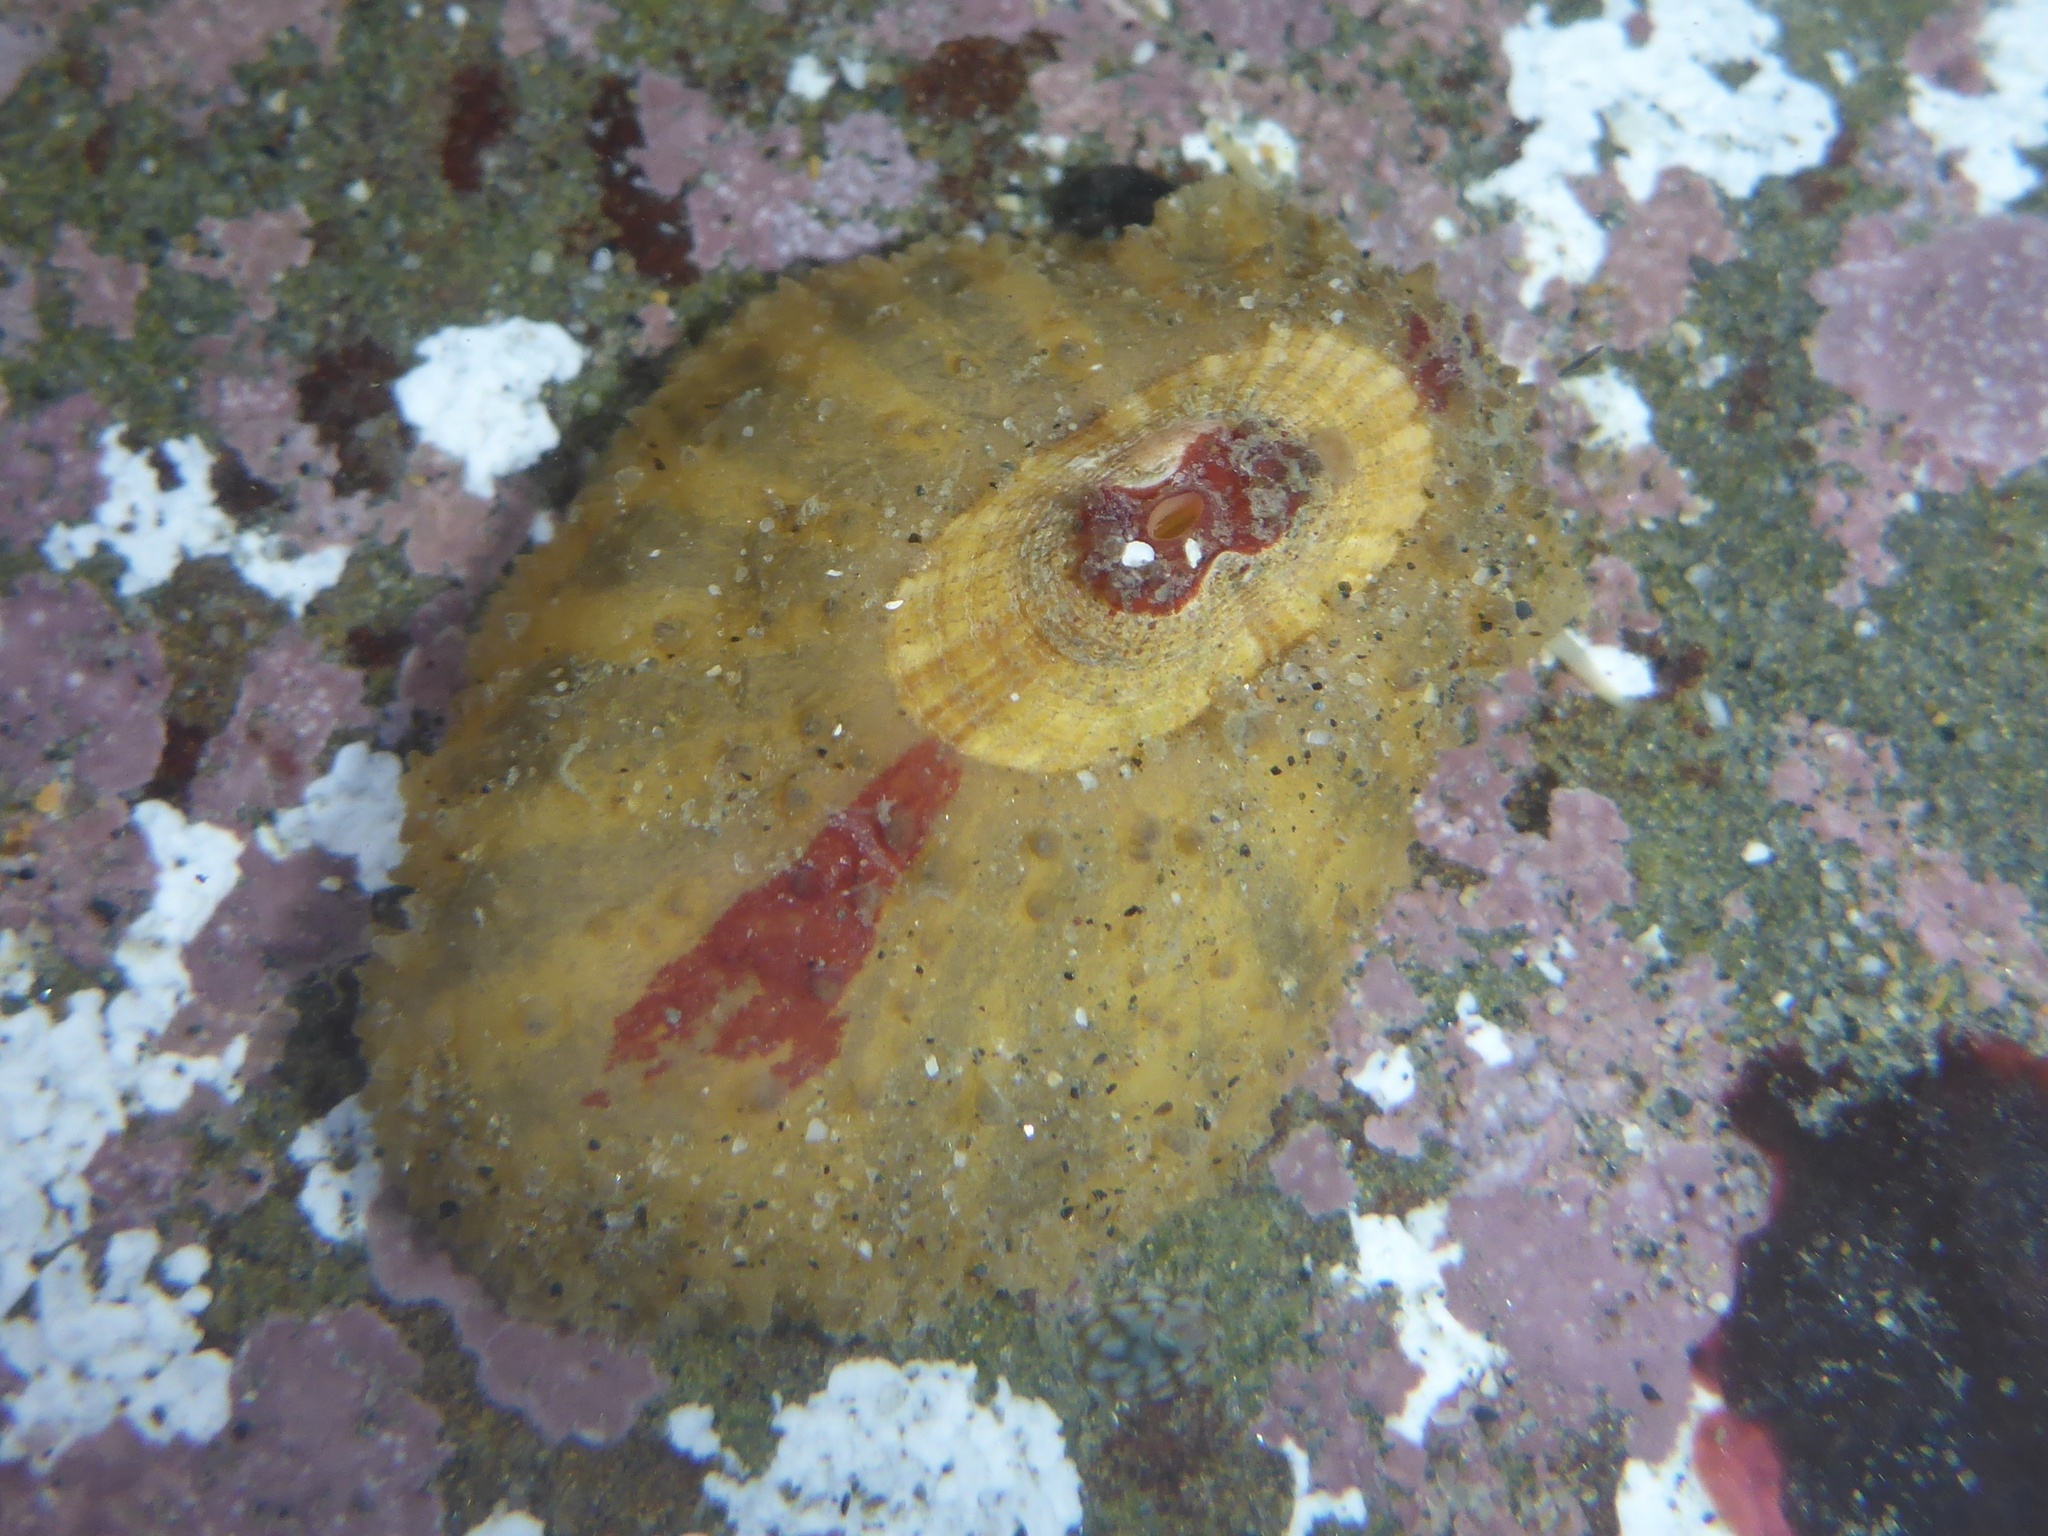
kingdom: Animalia
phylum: Mollusca
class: Gastropoda
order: Lepetellida
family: Fissurellidae
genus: Fissurellidea
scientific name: Fissurellidea bimaculata
